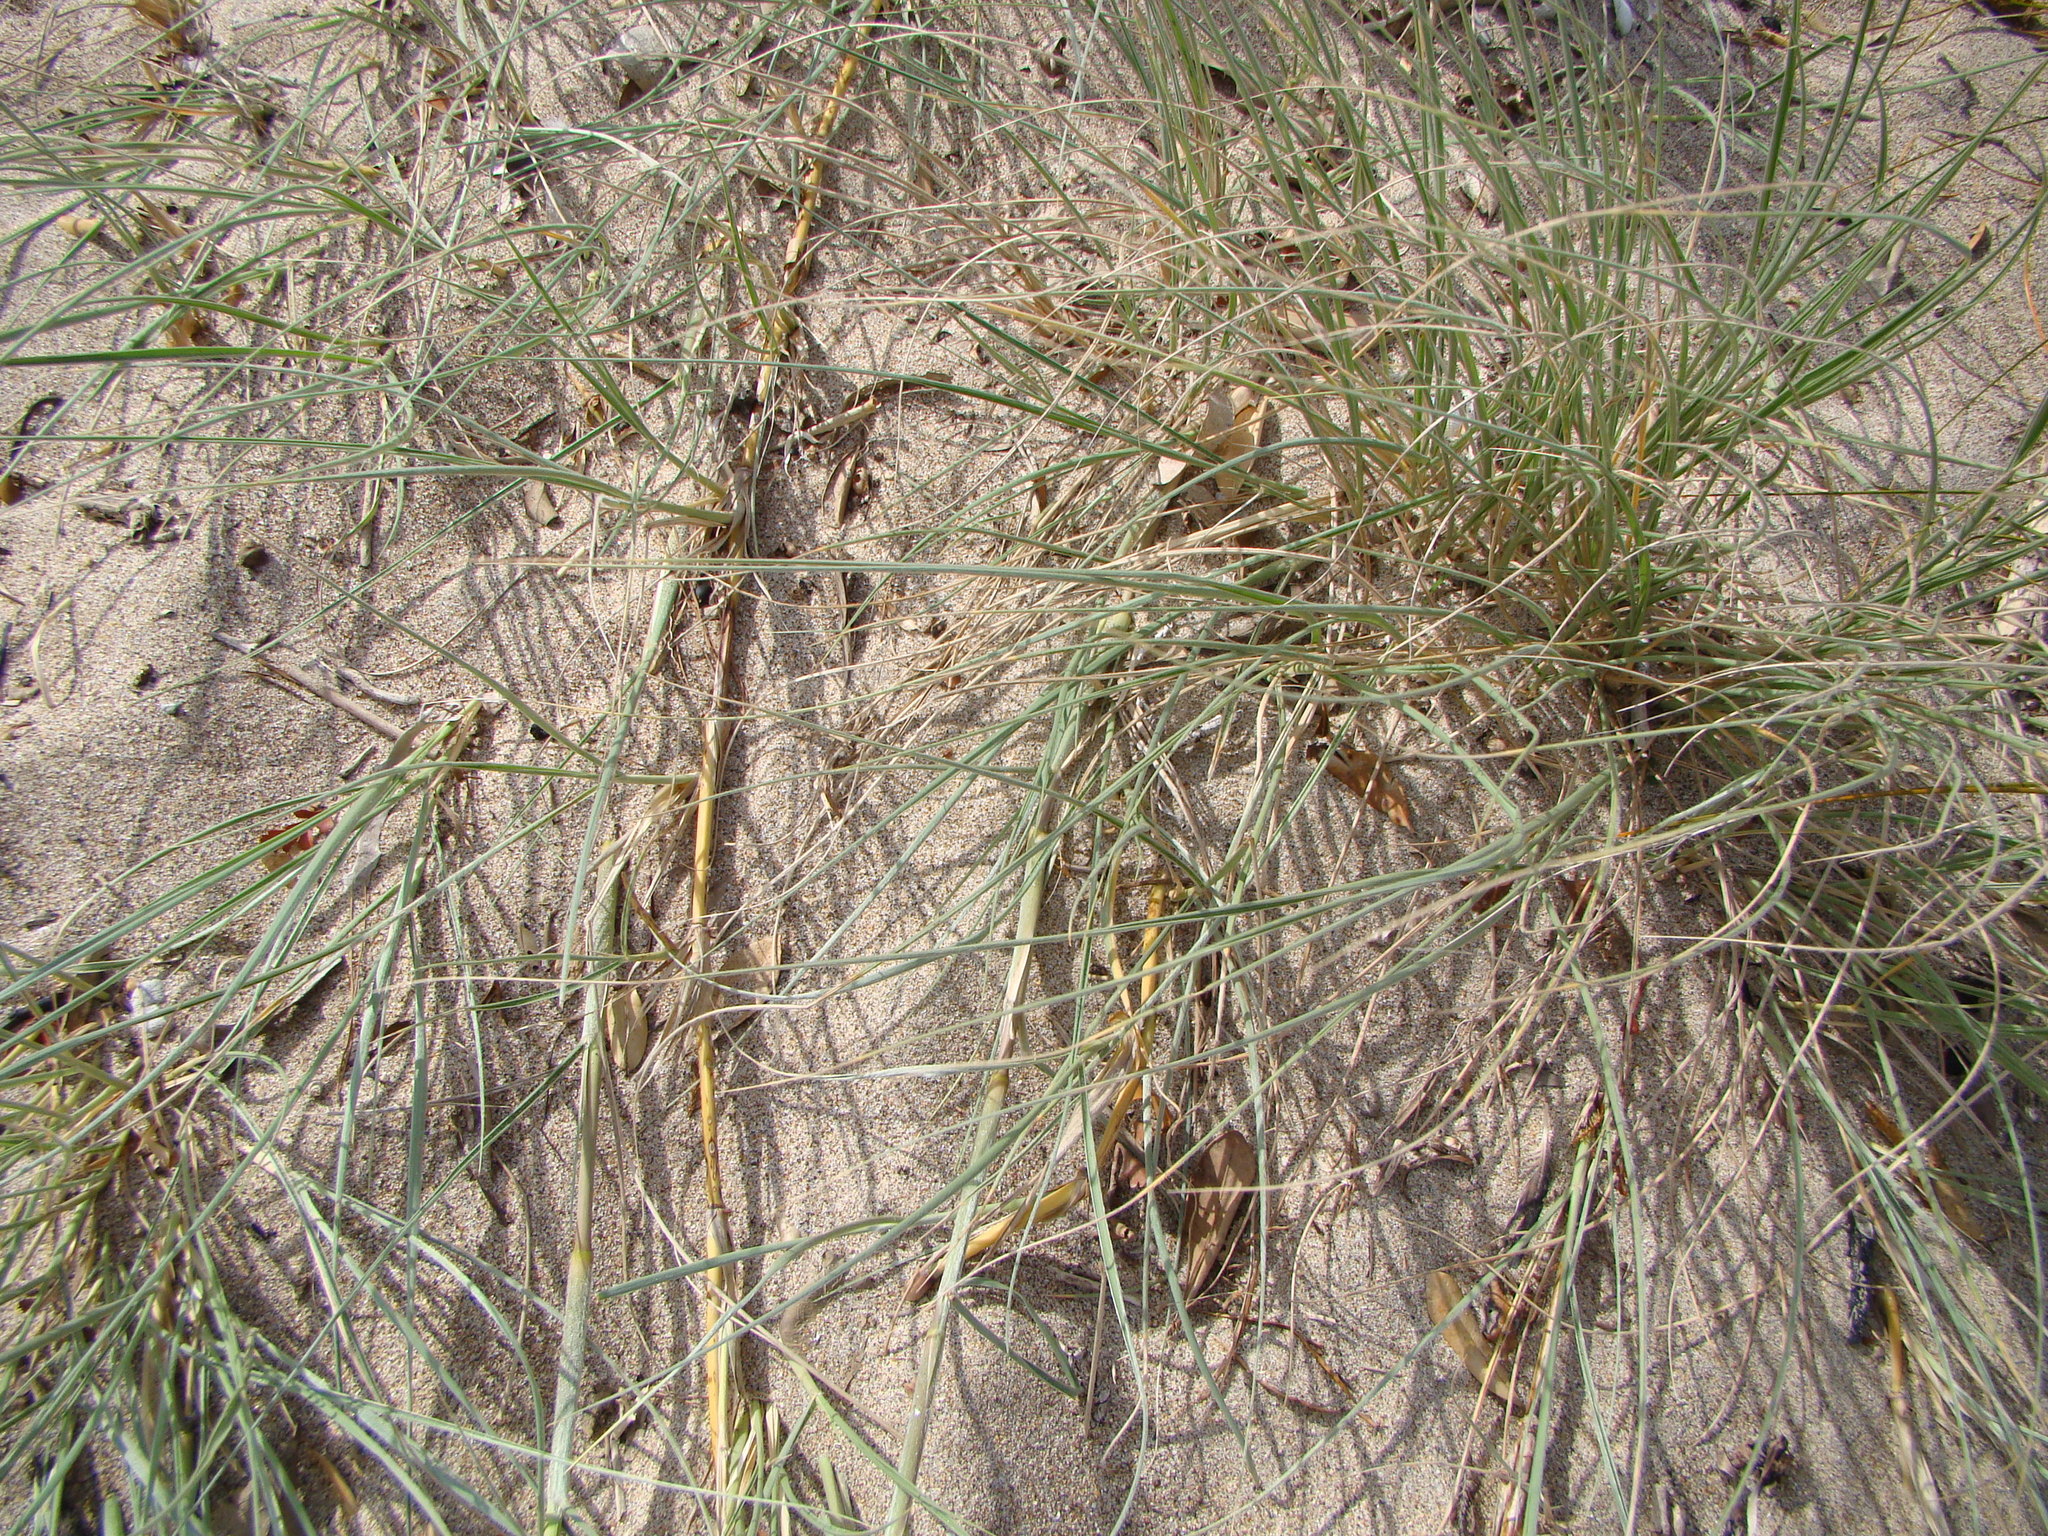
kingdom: Plantae
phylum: Tracheophyta
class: Liliopsida
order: Poales
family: Poaceae
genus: Spinifex
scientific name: Spinifex sericeus
